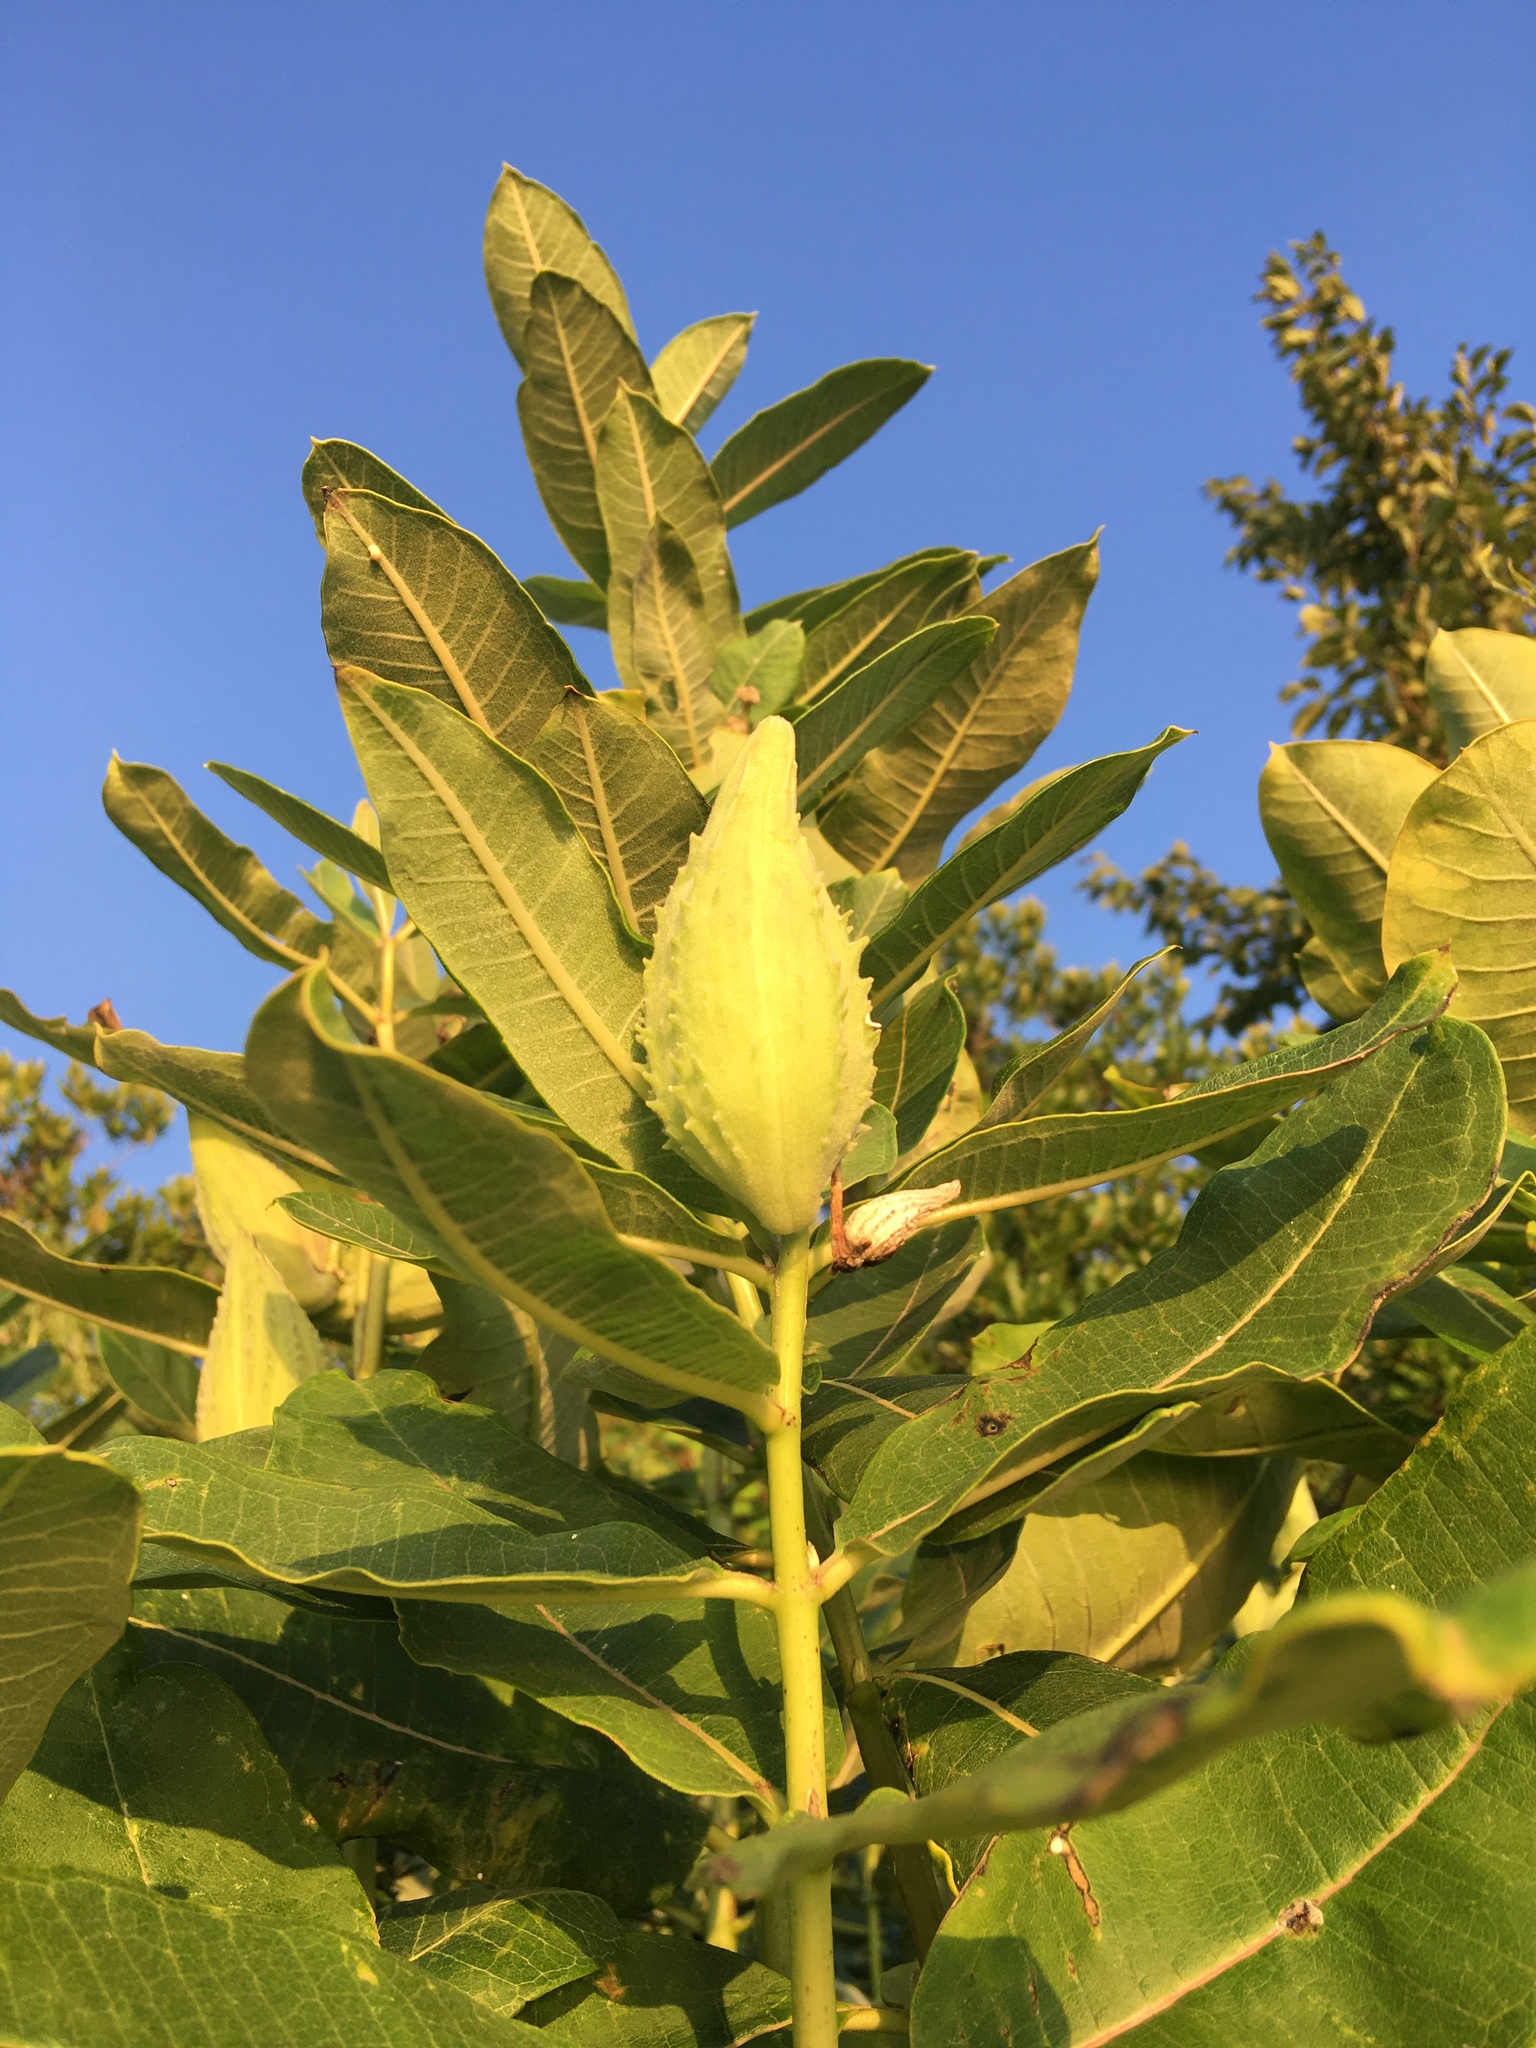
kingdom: Plantae
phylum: Tracheophyta
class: Magnoliopsida
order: Gentianales
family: Apocynaceae
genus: Asclepias
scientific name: Asclepias syriaca
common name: Common milkweed
